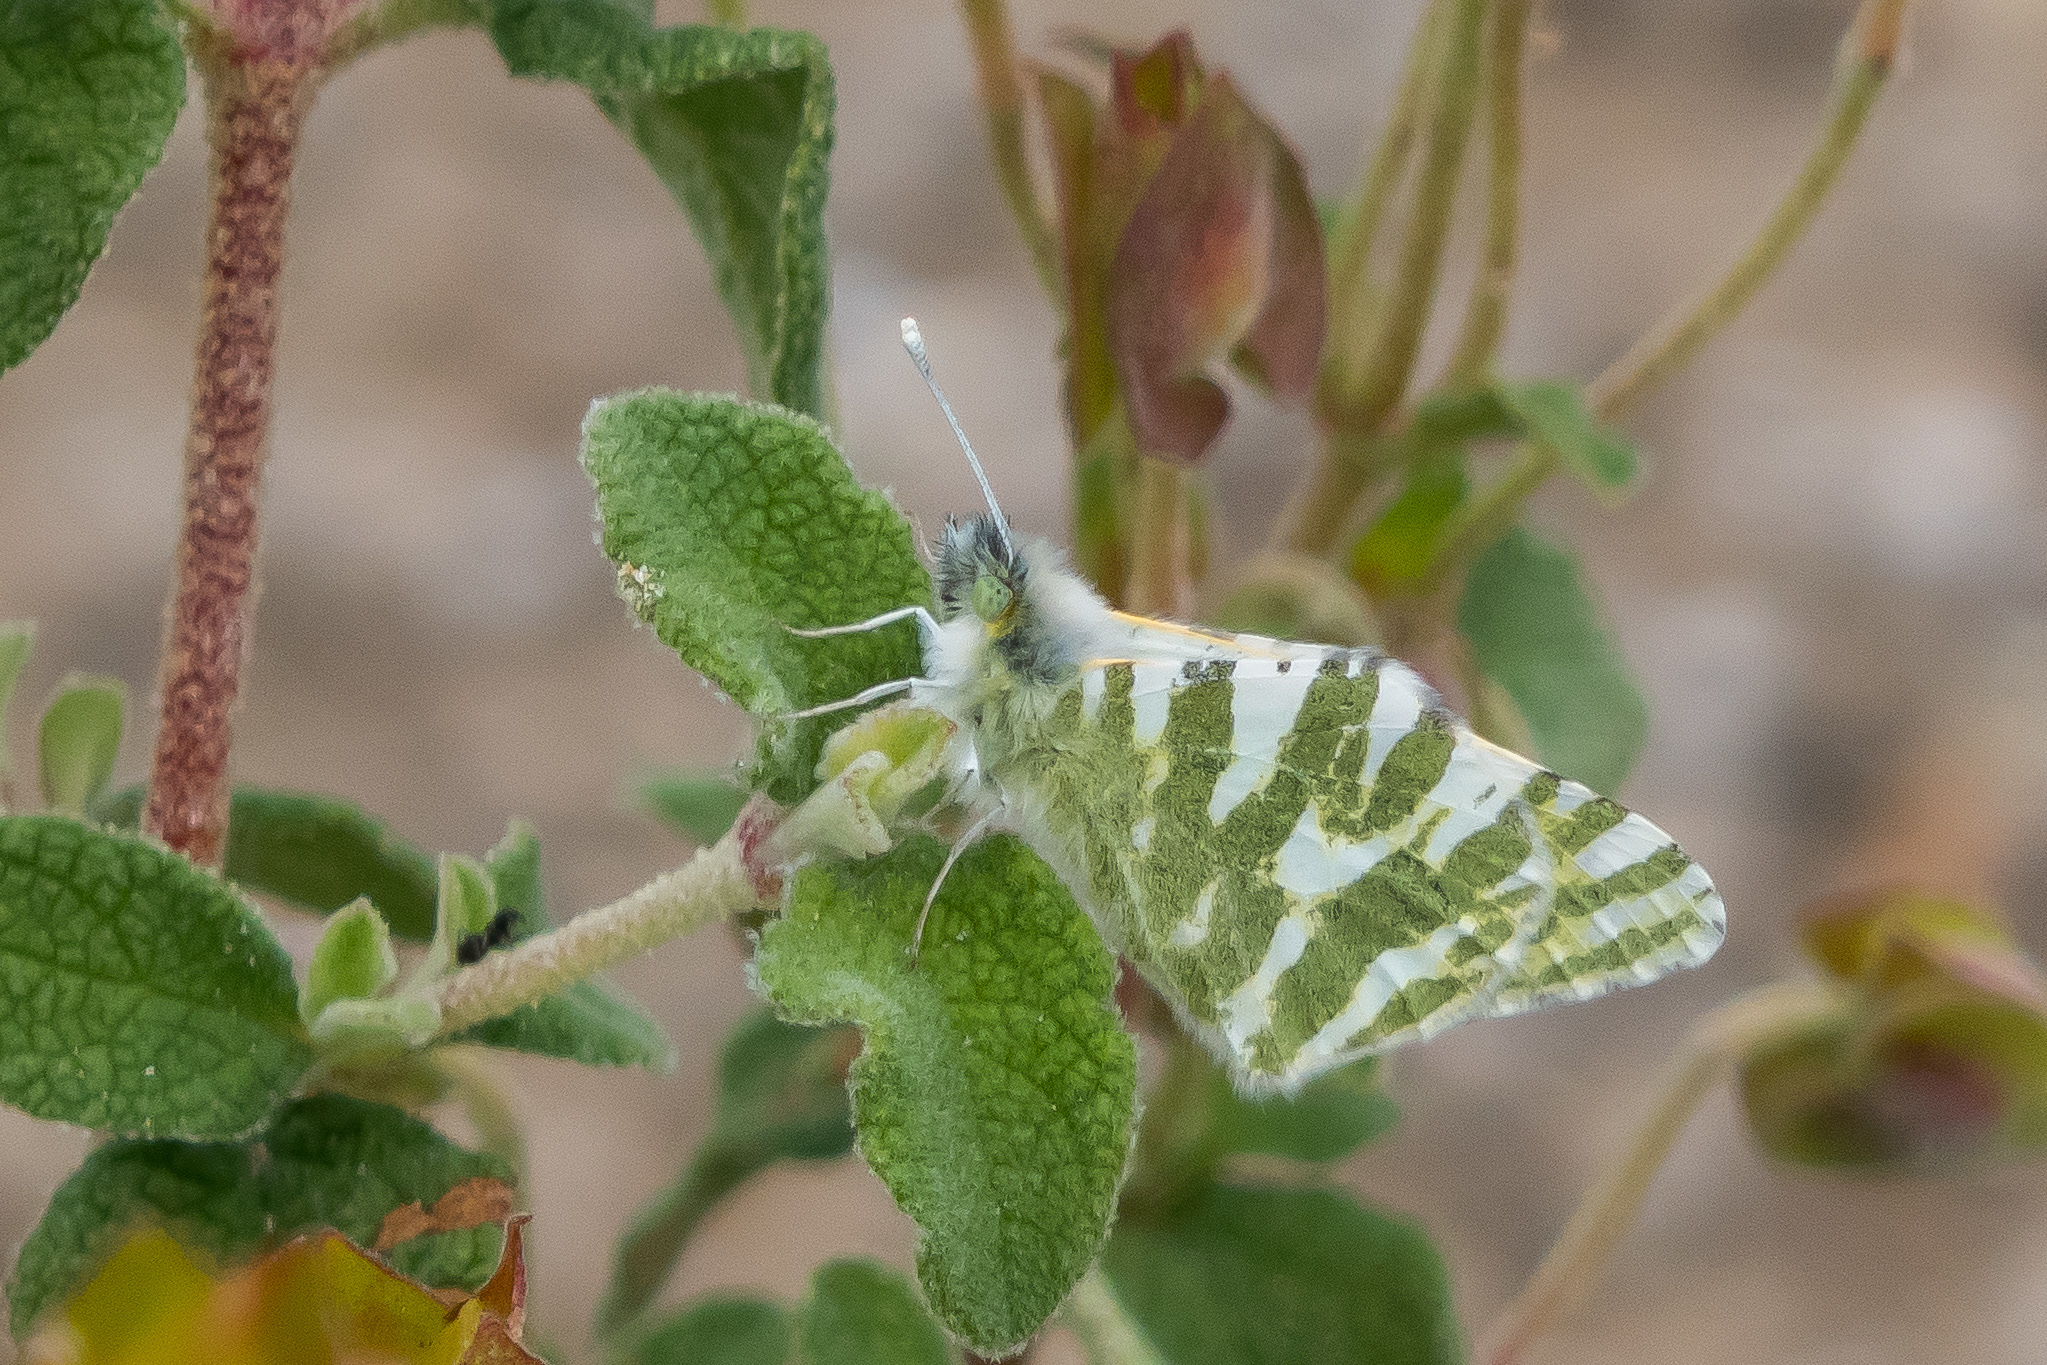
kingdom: Animalia
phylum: Arthropoda
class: Insecta
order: Lepidoptera
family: Pieridae
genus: Euchloe
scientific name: Euchloe belemia
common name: Green-striped white
